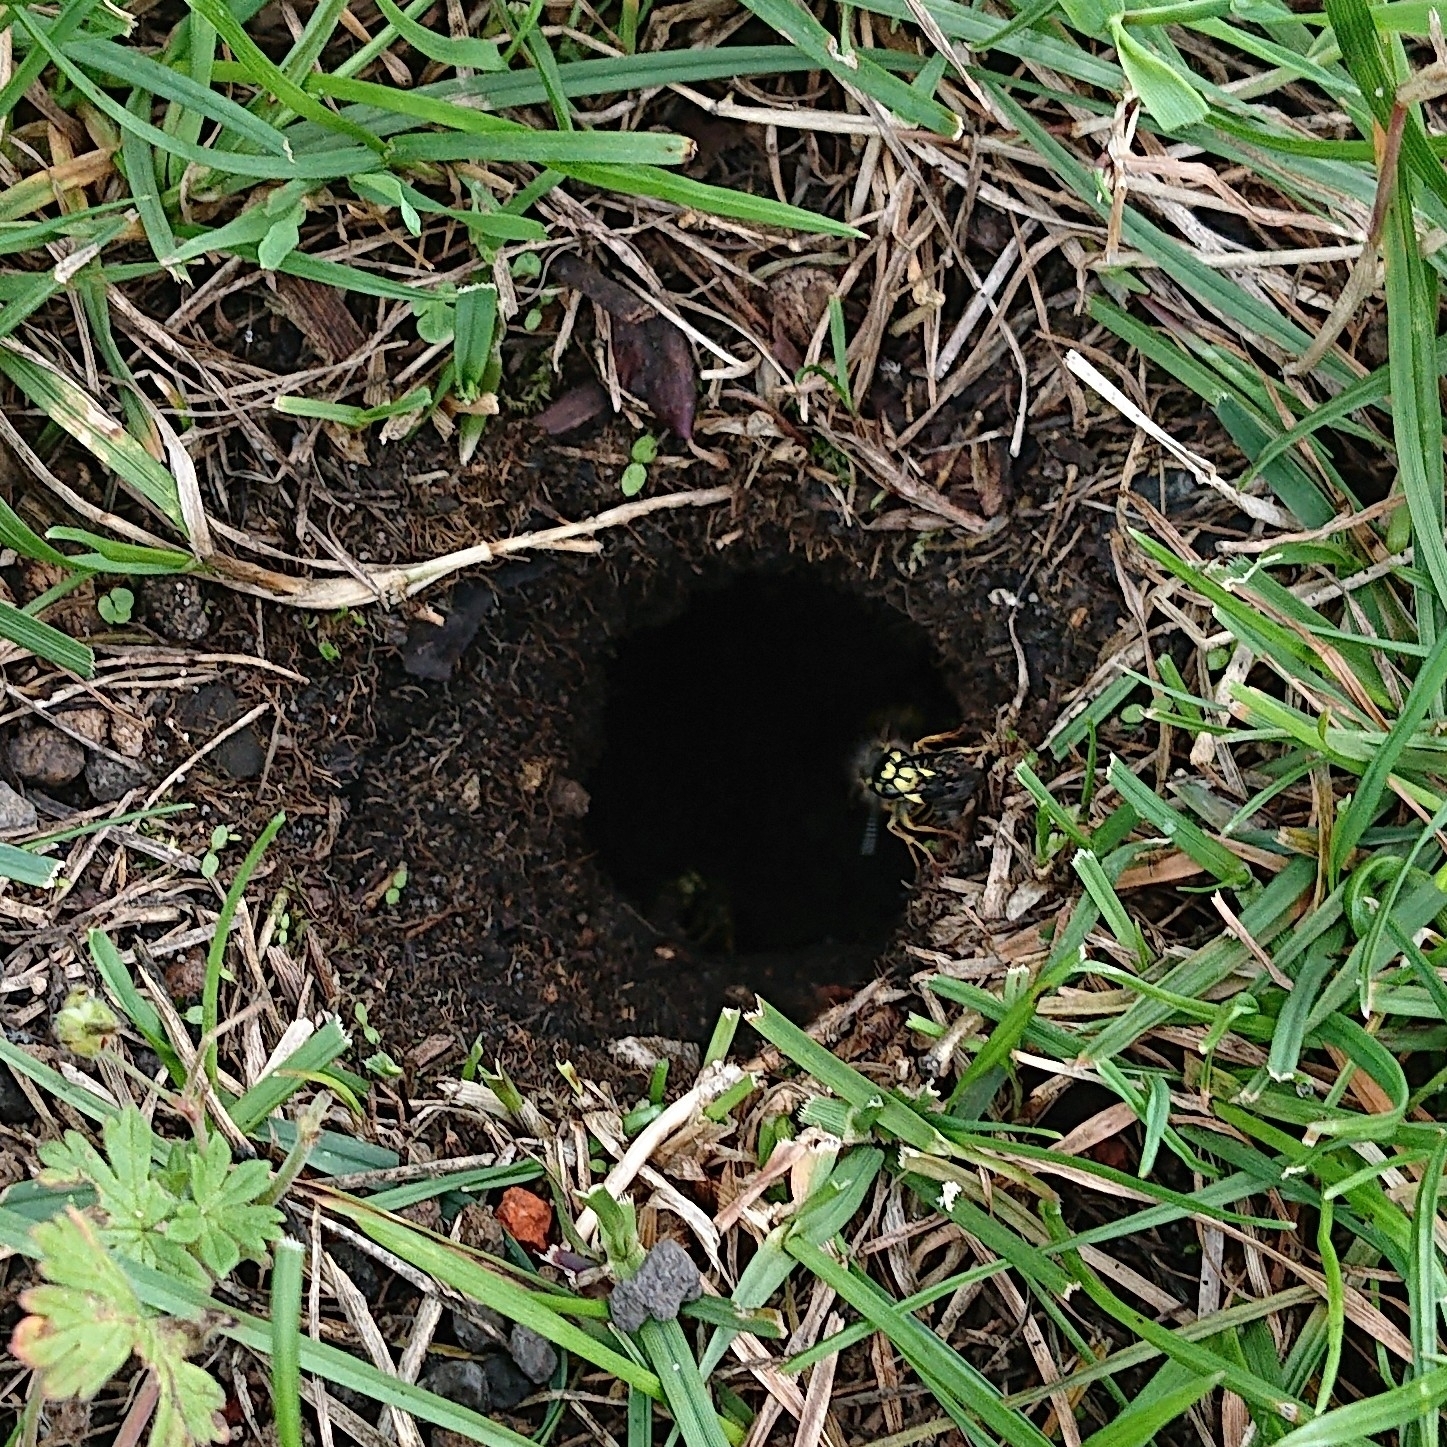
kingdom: Animalia
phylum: Arthropoda
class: Insecta
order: Hymenoptera
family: Vespidae
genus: Vespula
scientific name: Vespula vulgaris
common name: Common wasp
